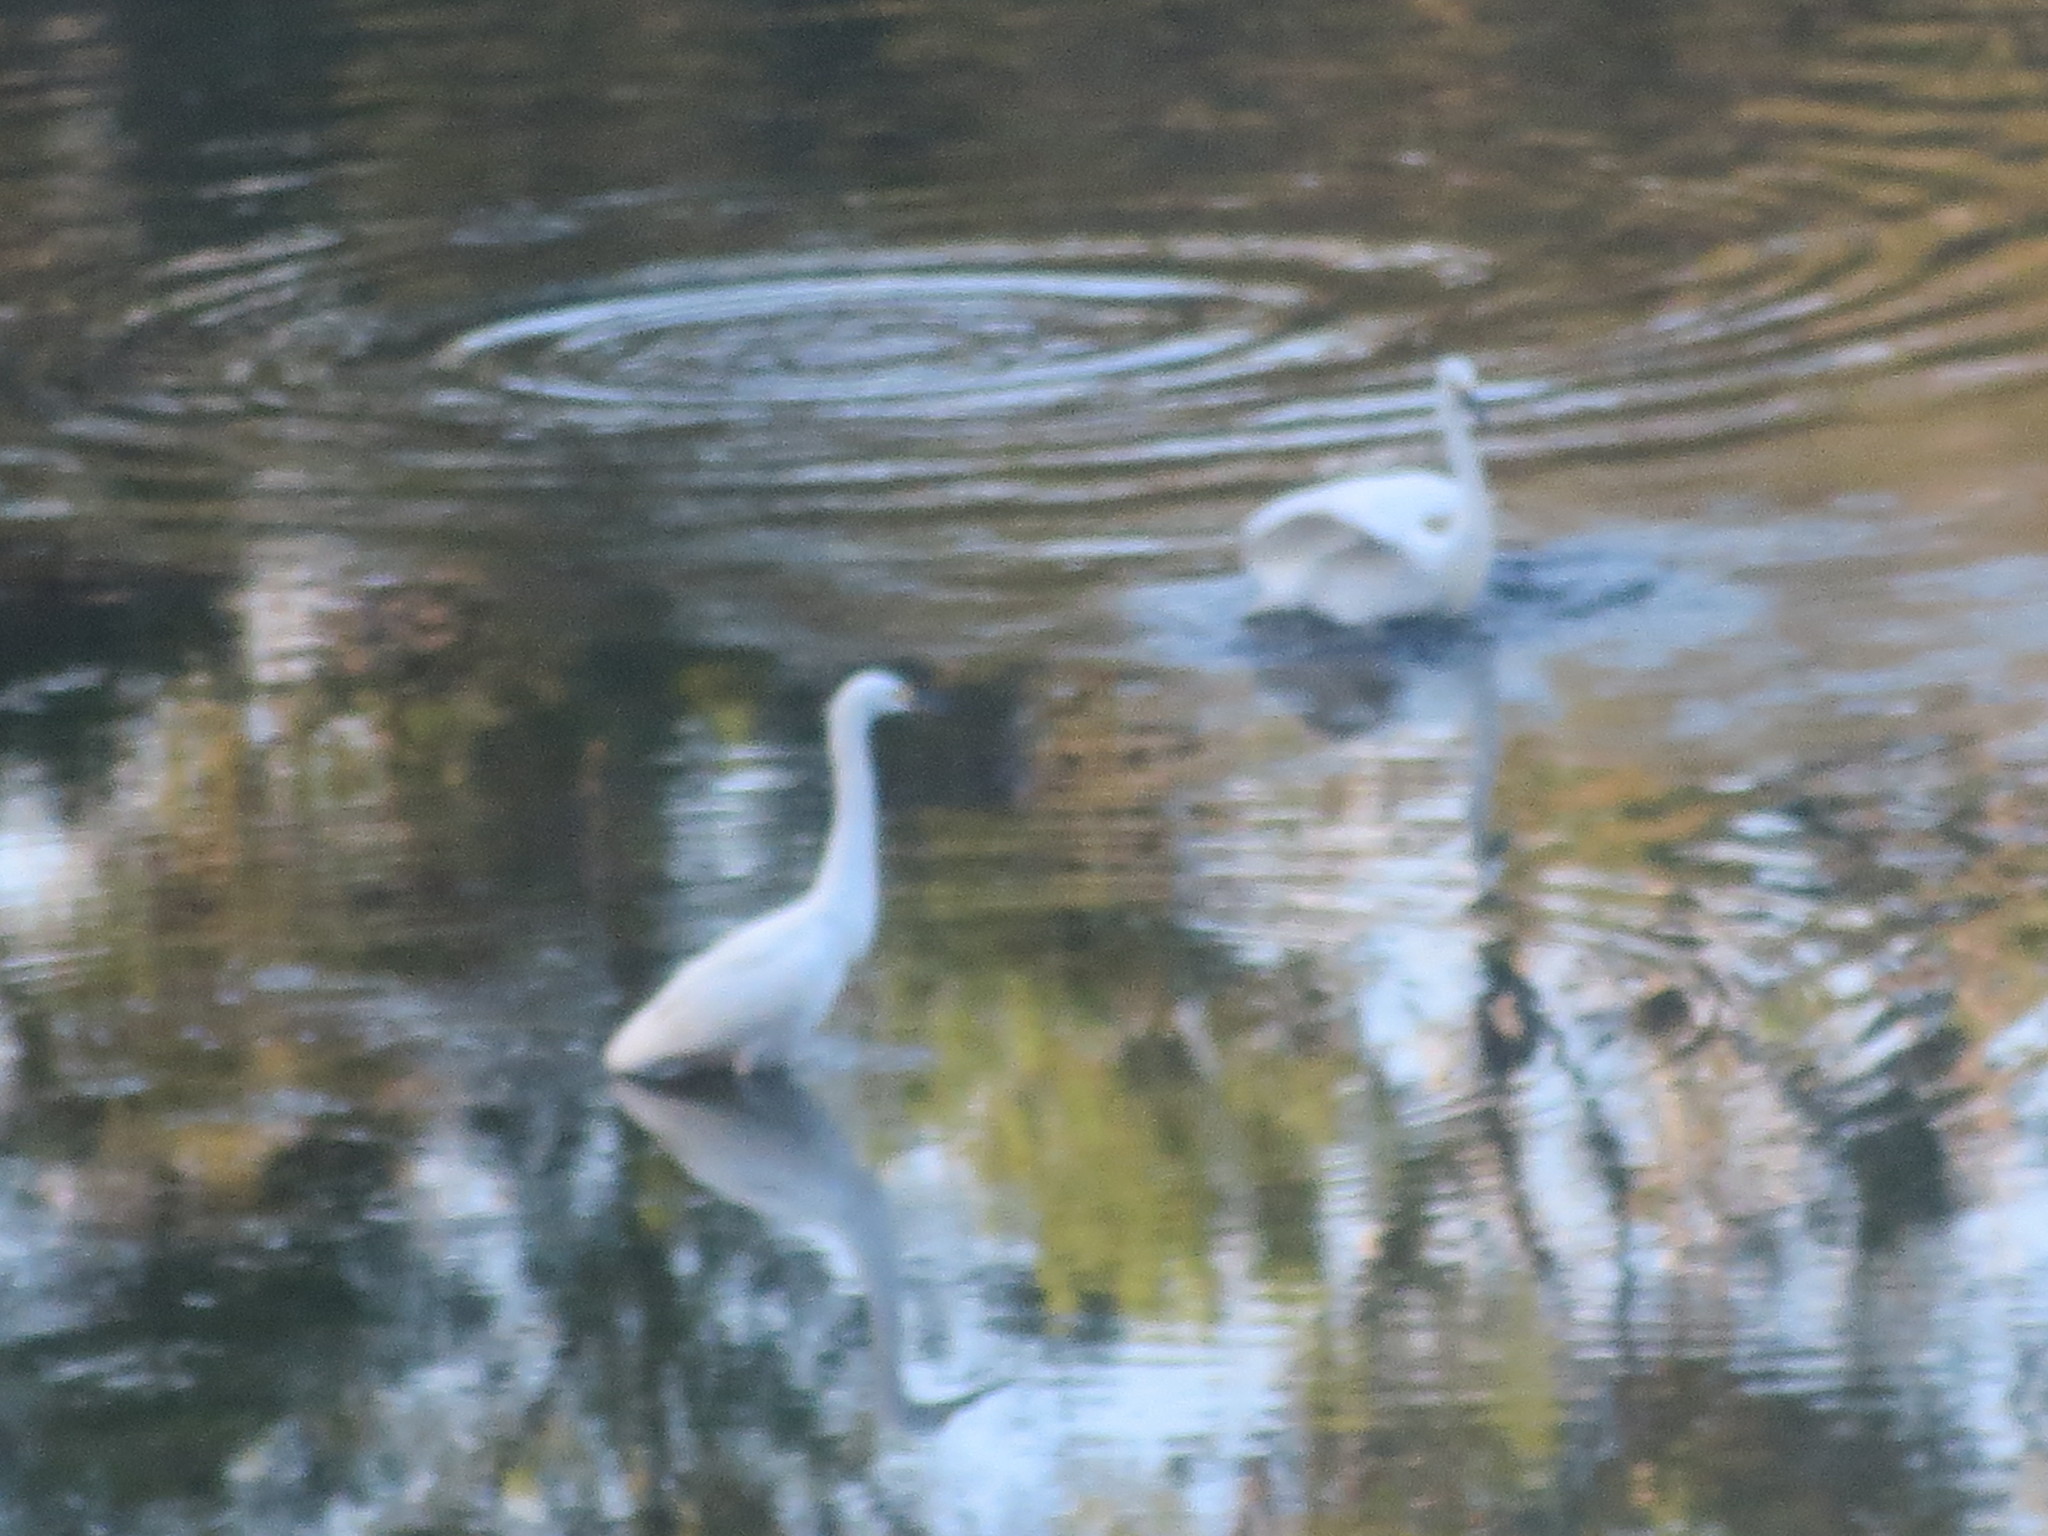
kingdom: Animalia
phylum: Chordata
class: Aves
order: Pelecaniformes
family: Ardeidae
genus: Egretta
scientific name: Egretta thula
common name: Snowy egret
